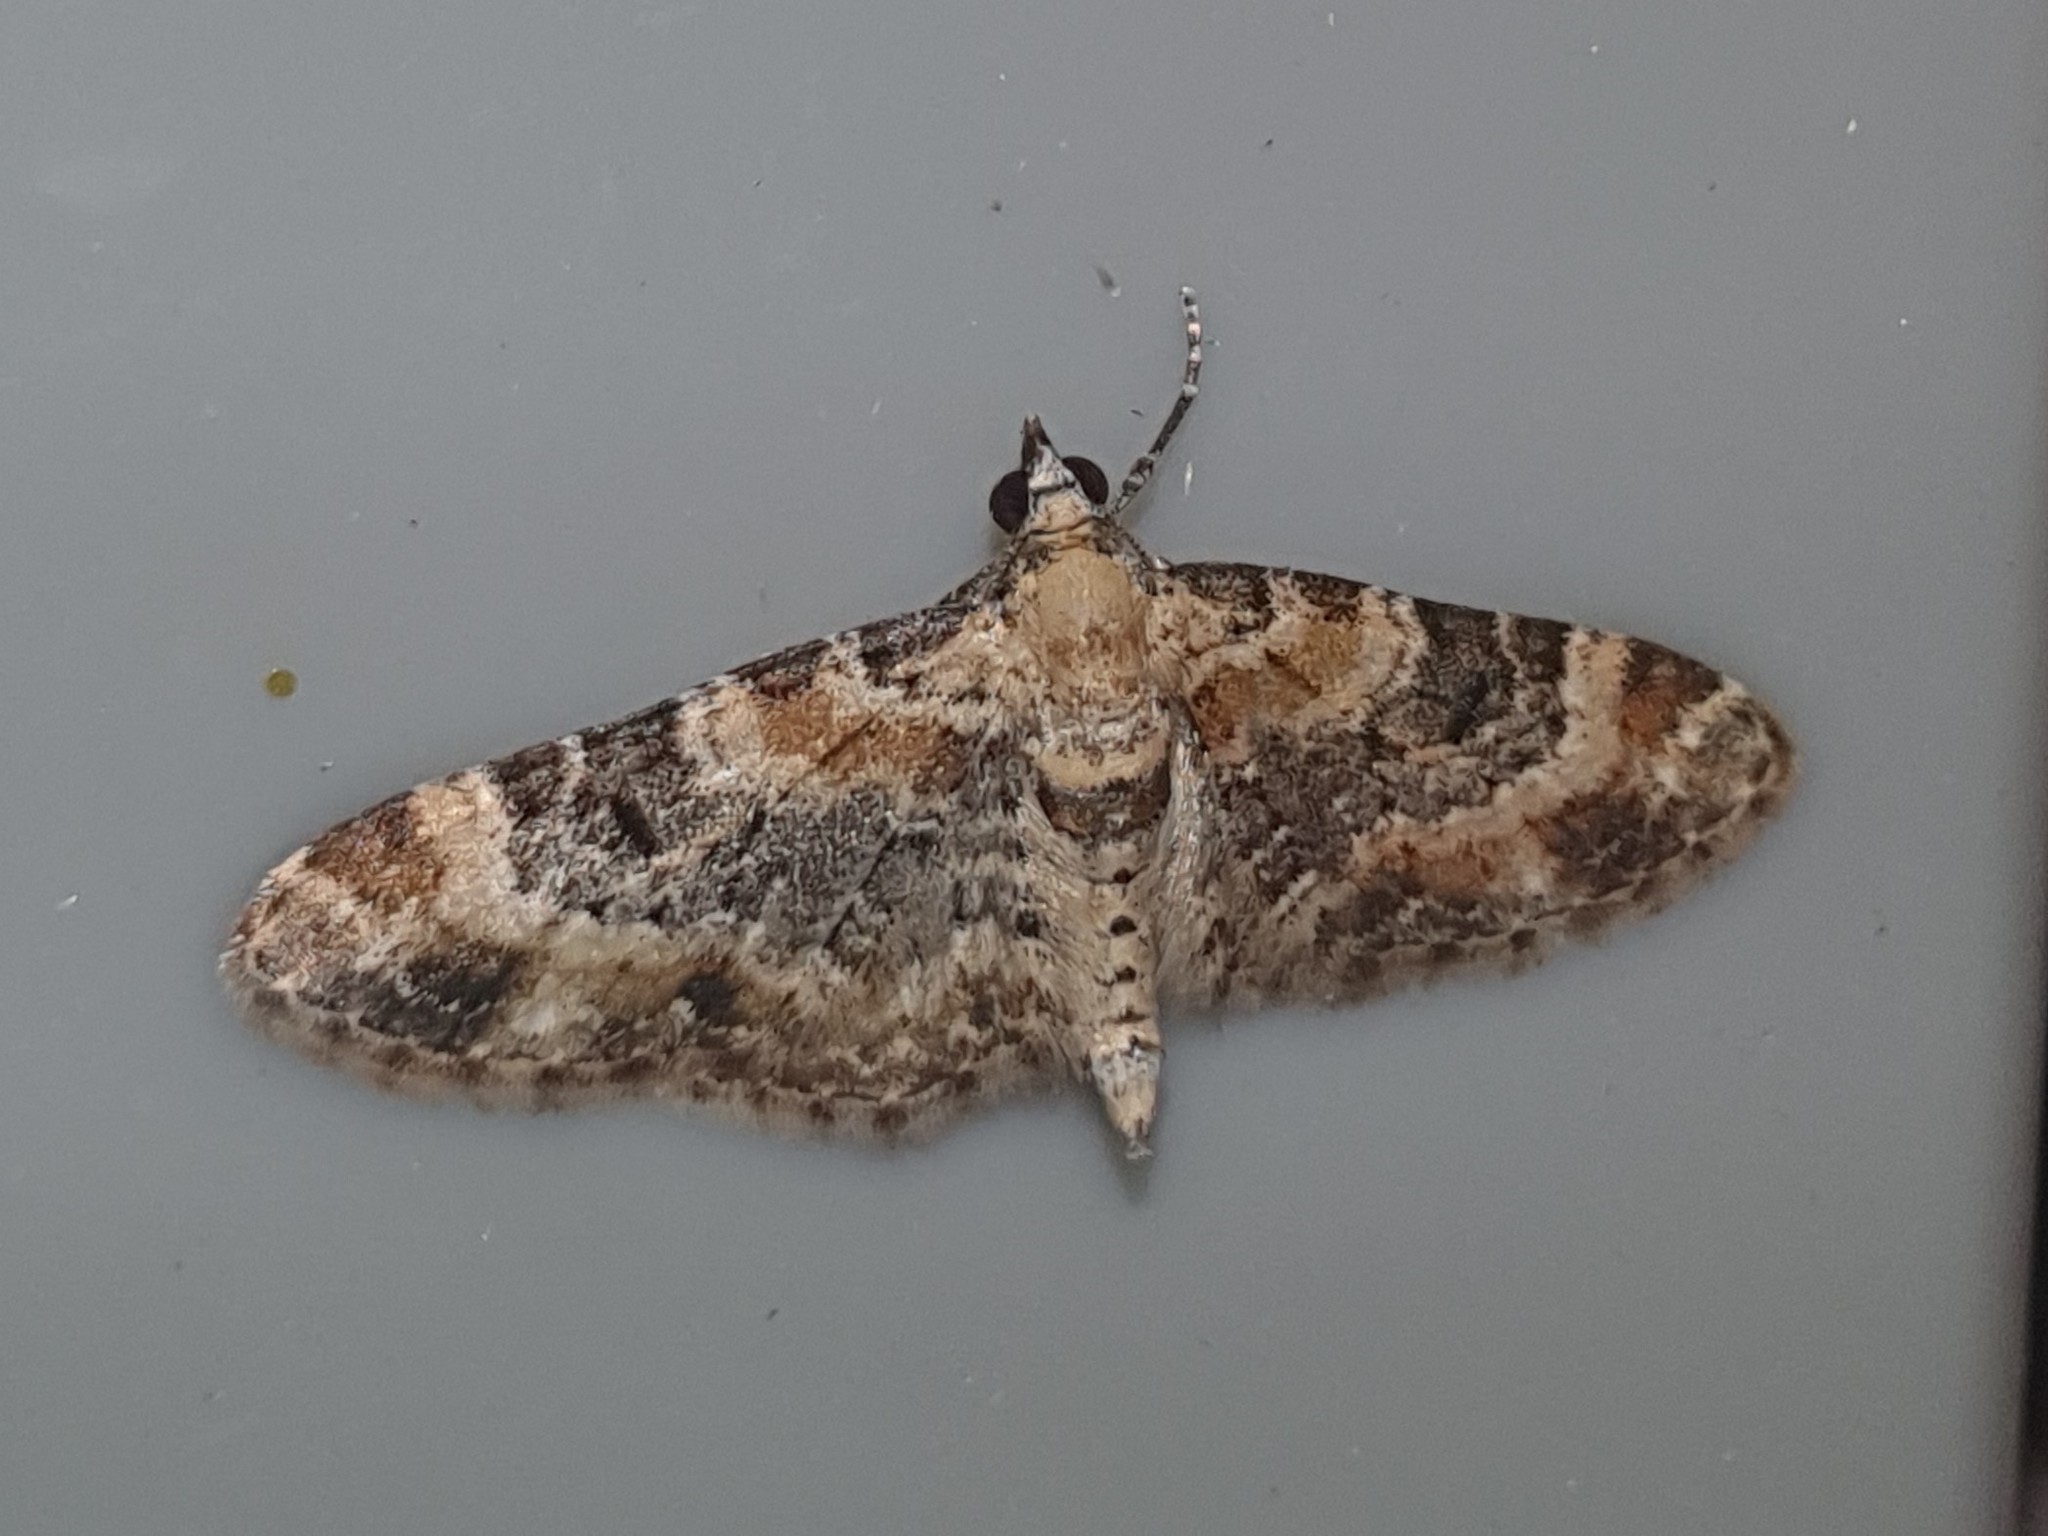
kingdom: Animalia
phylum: Arthropoda
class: Insecta
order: Lepidoptera
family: Geometridae
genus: Eupithecia
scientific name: Eupithecia pulchellata
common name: Foxglove pug
